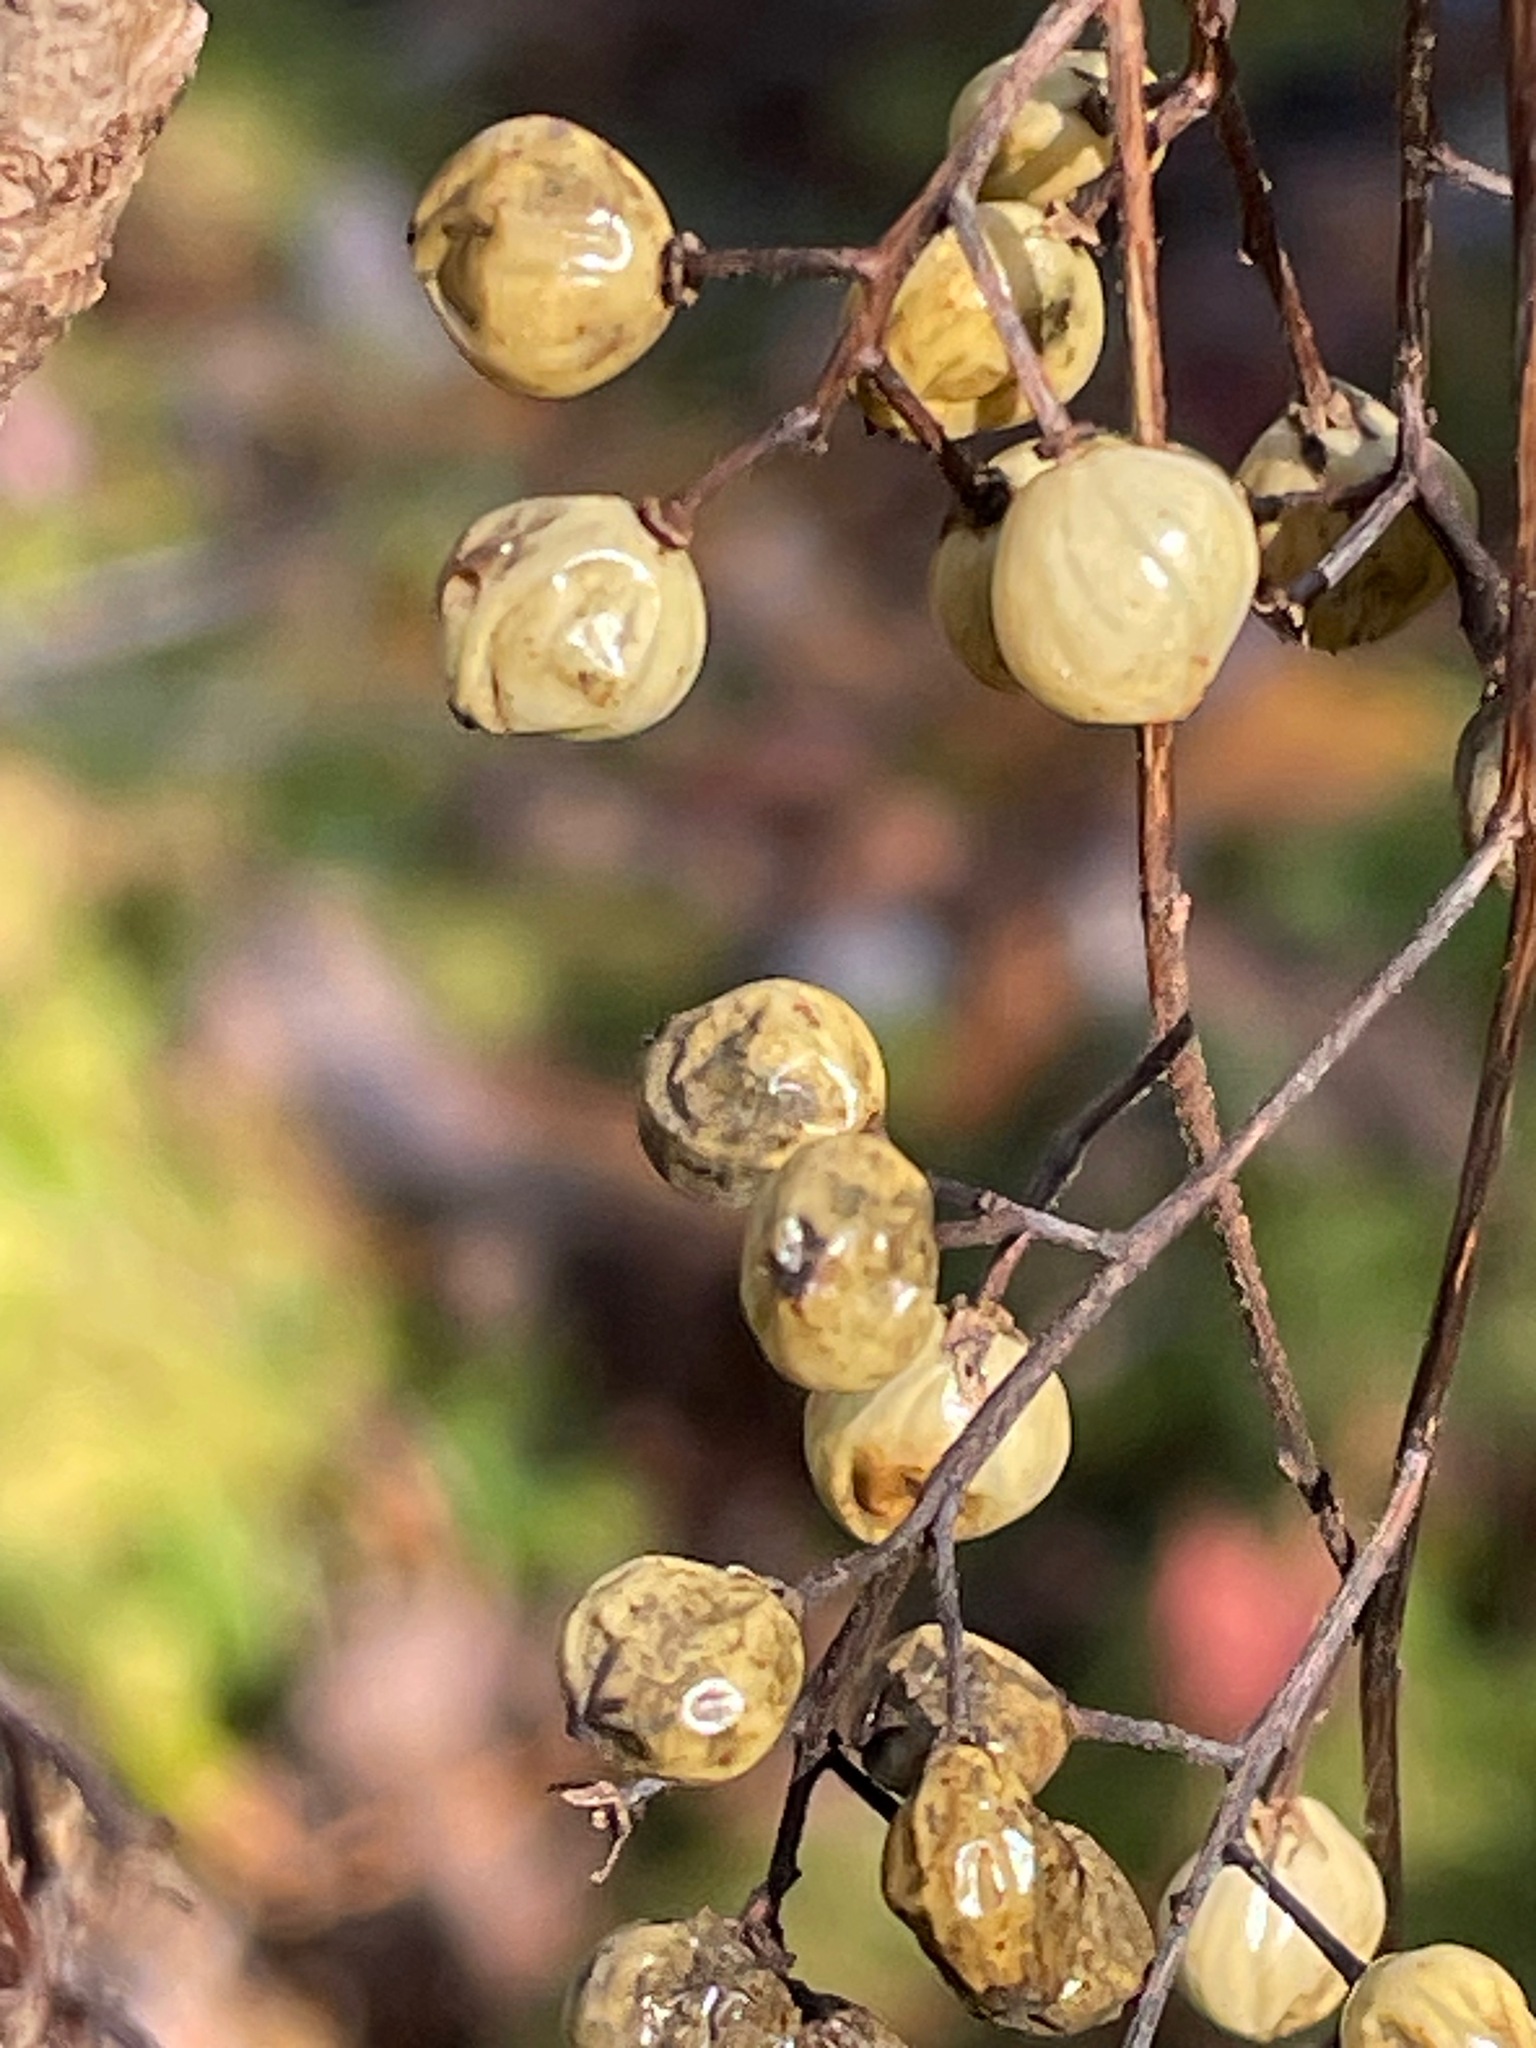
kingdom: Plantae
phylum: Tracheophyta
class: Magnoliopsida
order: Sapindales
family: Anacardiaceae
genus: Toxicodendron
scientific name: Toxicodendron vernix
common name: Poison sumac
